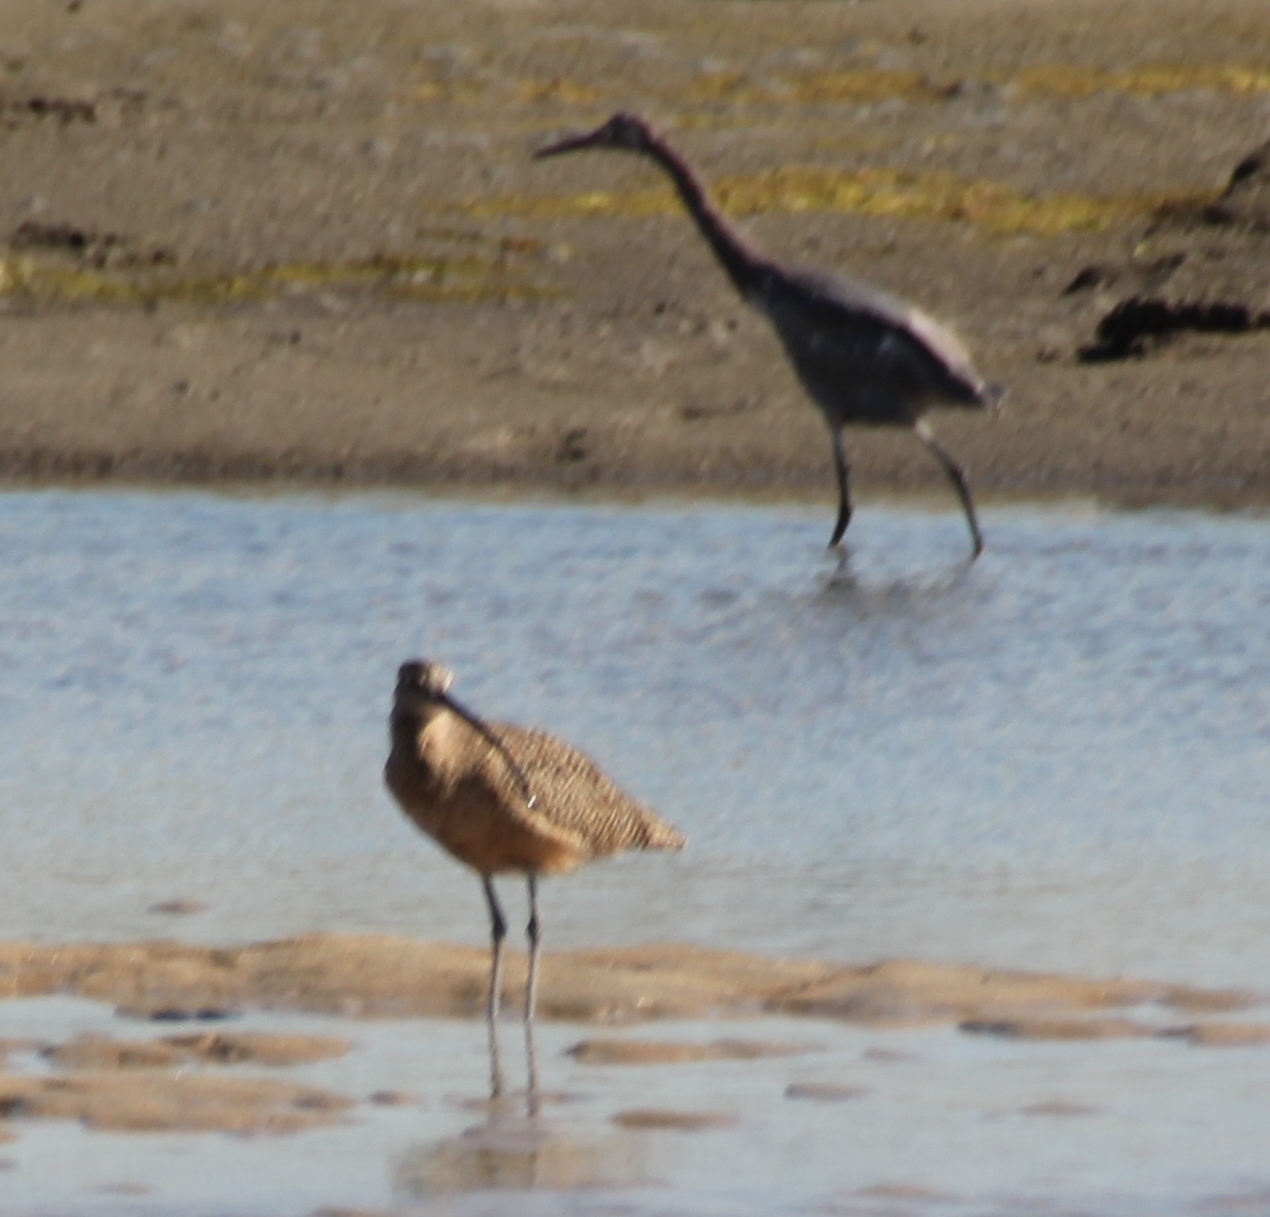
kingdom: Animalia
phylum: Chordata
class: Aves
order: Charadriiformes
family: Scolopacidae
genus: Numenius
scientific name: Numenius americanus
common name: Long-billed curlew
